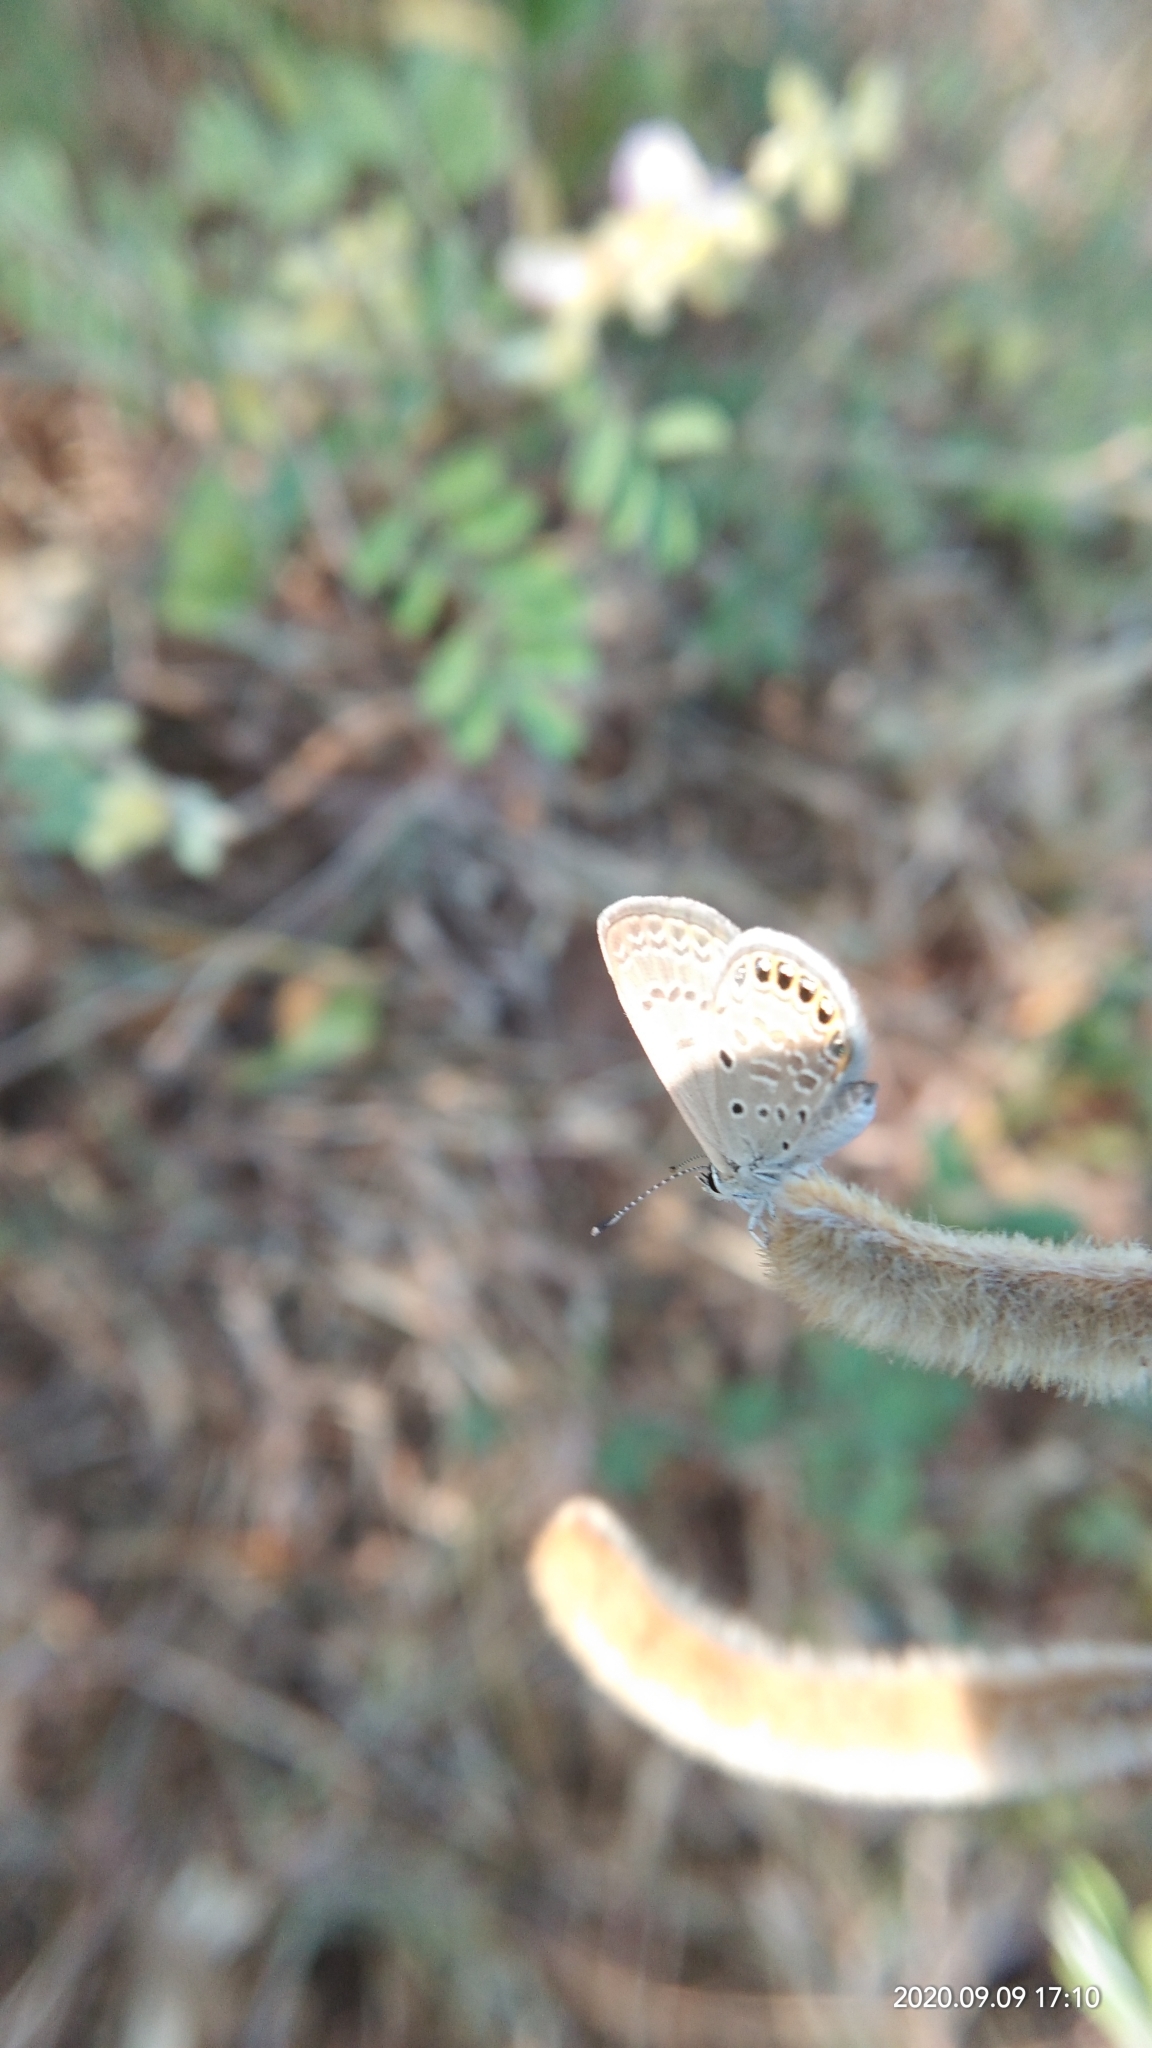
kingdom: Animalia
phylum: Arthropoda
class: Insecta
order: Lepidoptera
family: Lycaenidae
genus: Freyeria
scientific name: Freyeria putli
